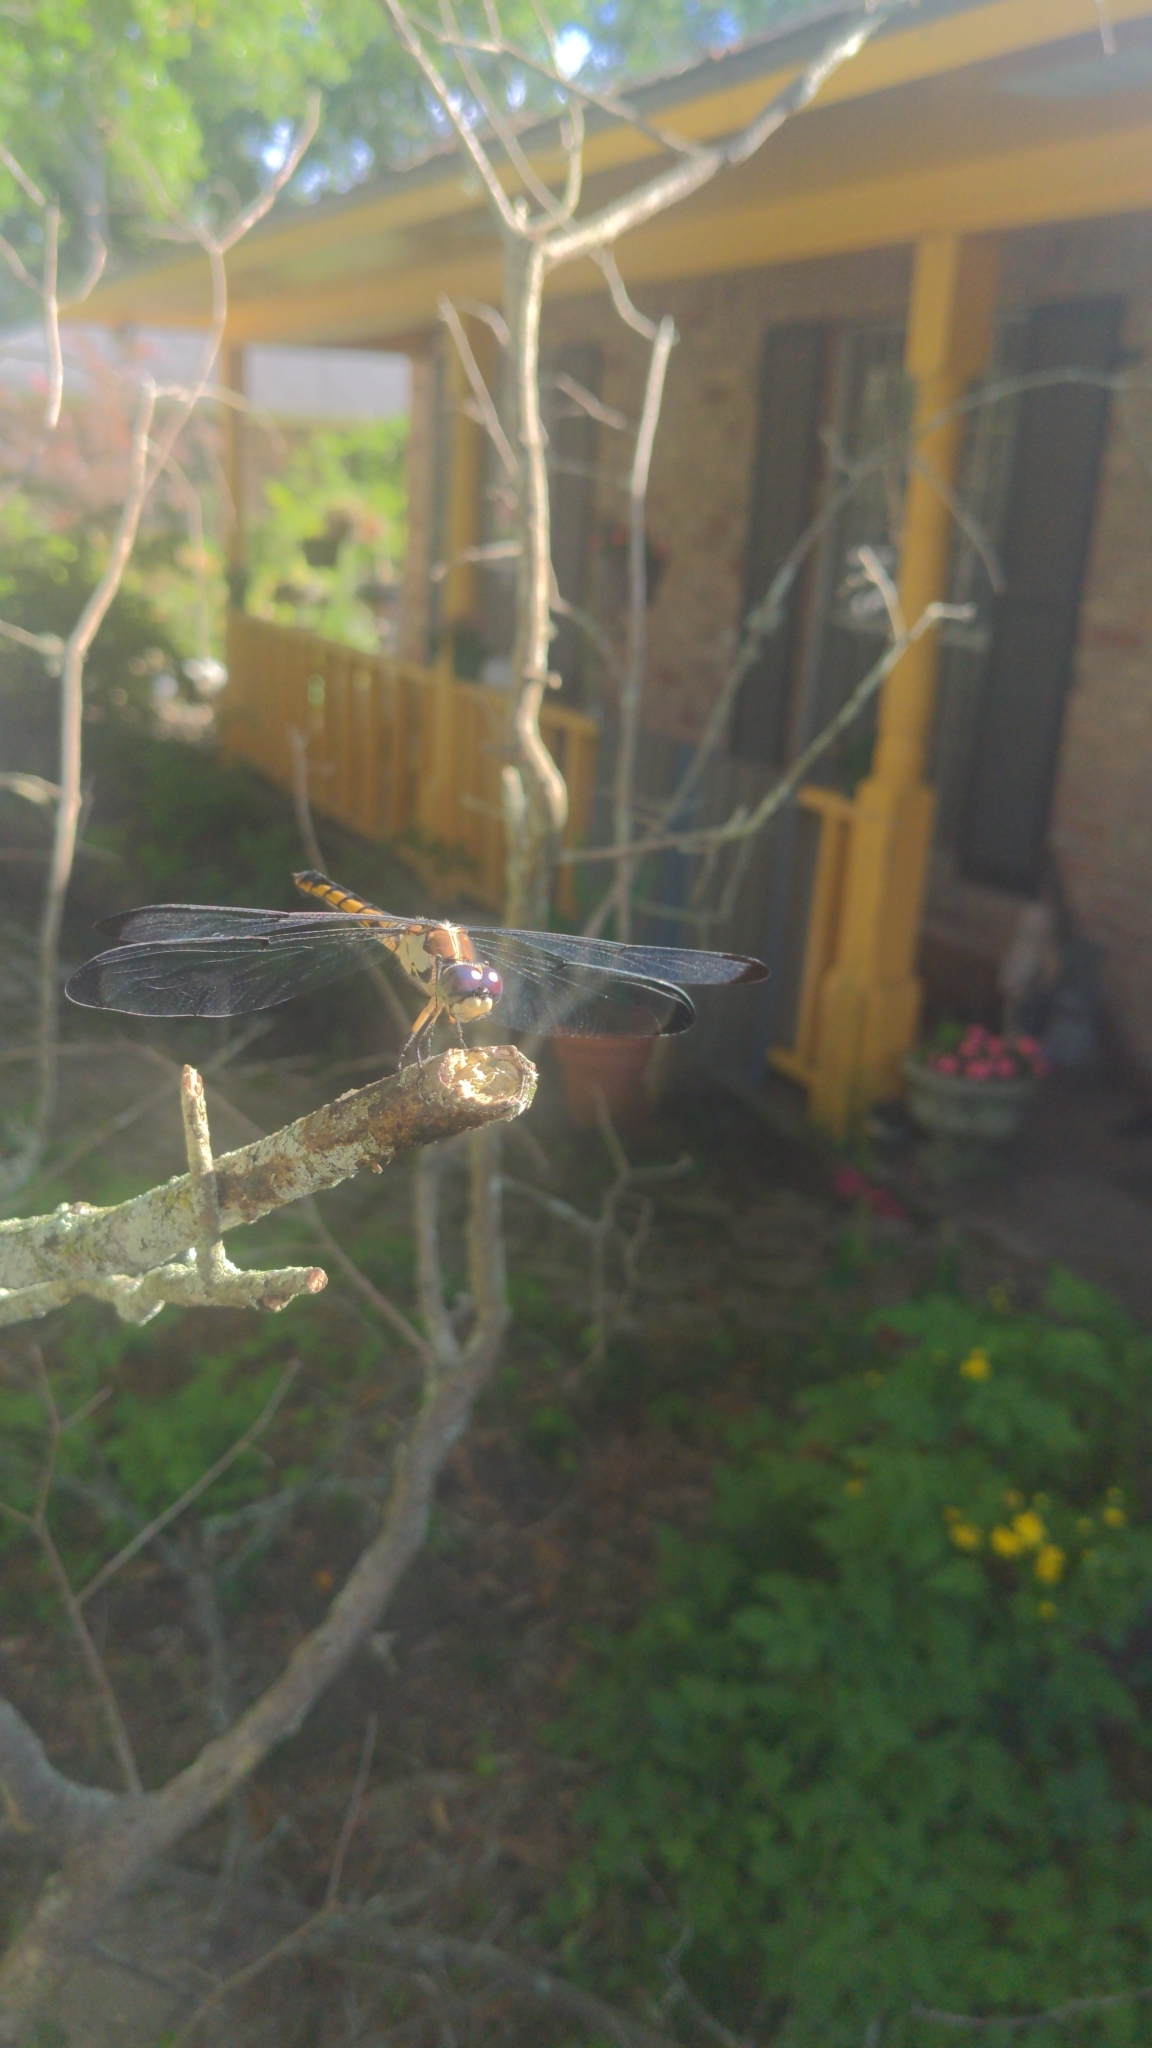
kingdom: Animalia
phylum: Arthropoda
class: Insecta
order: Odonata
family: Libellulidae
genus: Libellula
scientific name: Libellula vibrans
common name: Great blue skimmer
